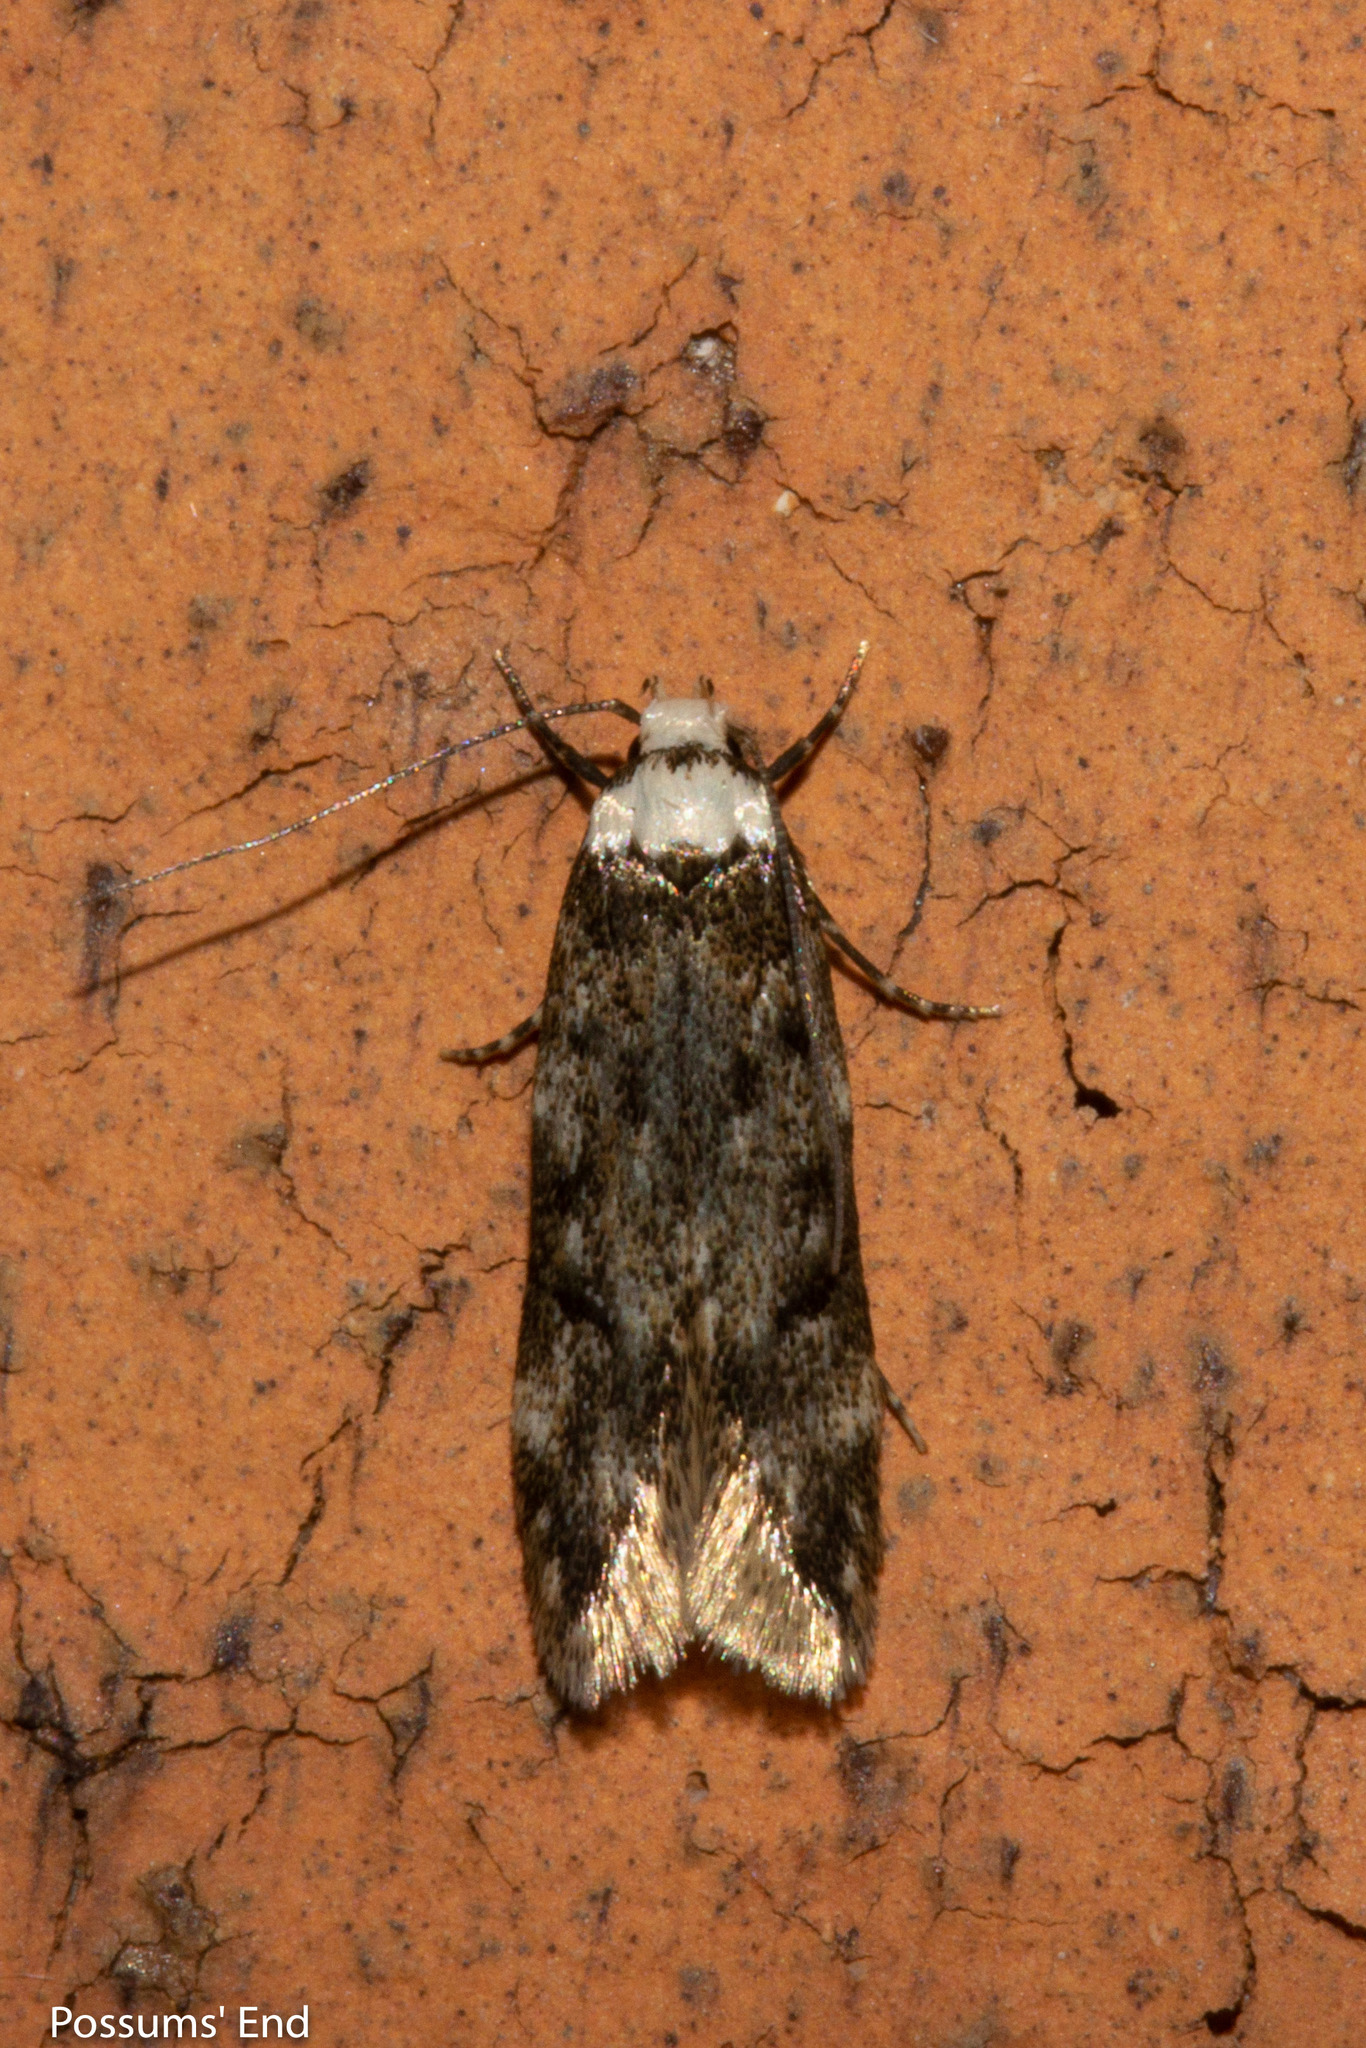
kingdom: Animalia
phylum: Arthropoda
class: Insecta
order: Lepidoptera
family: Oecophoridae
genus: Endrosis
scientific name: Endrosis sarcitrella
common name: White-shouldered house moth
